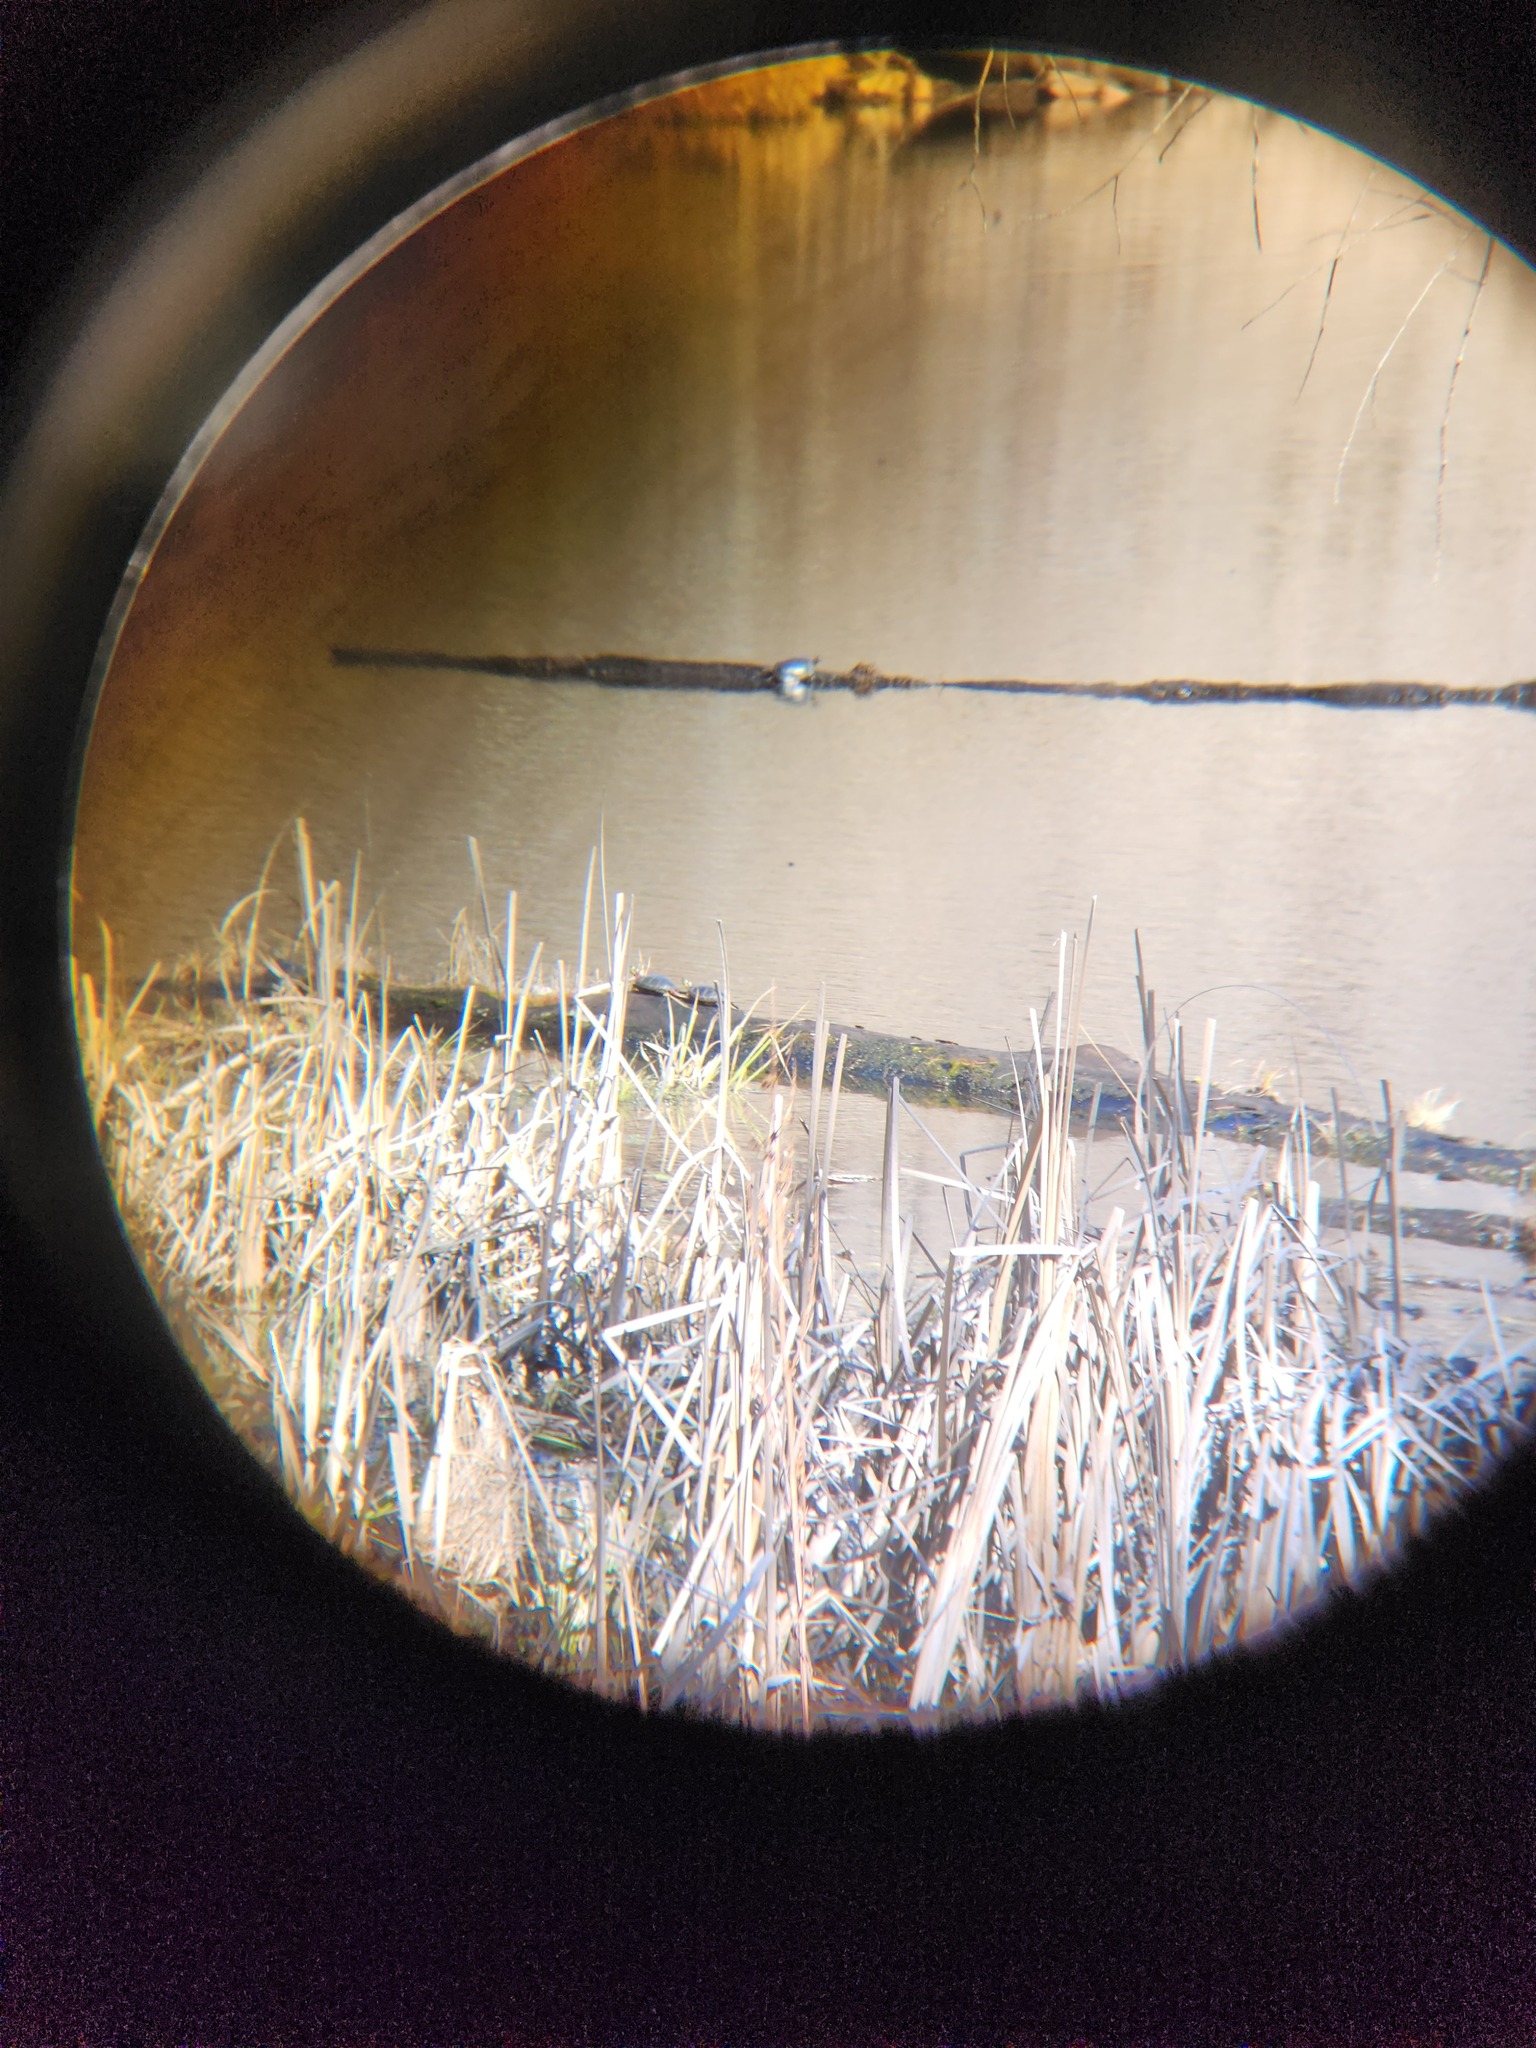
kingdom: Animalia
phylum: Chordata
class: Testudines
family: Emydidae
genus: Chrysemys
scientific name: Chrysemys picta
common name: Painted turtle
